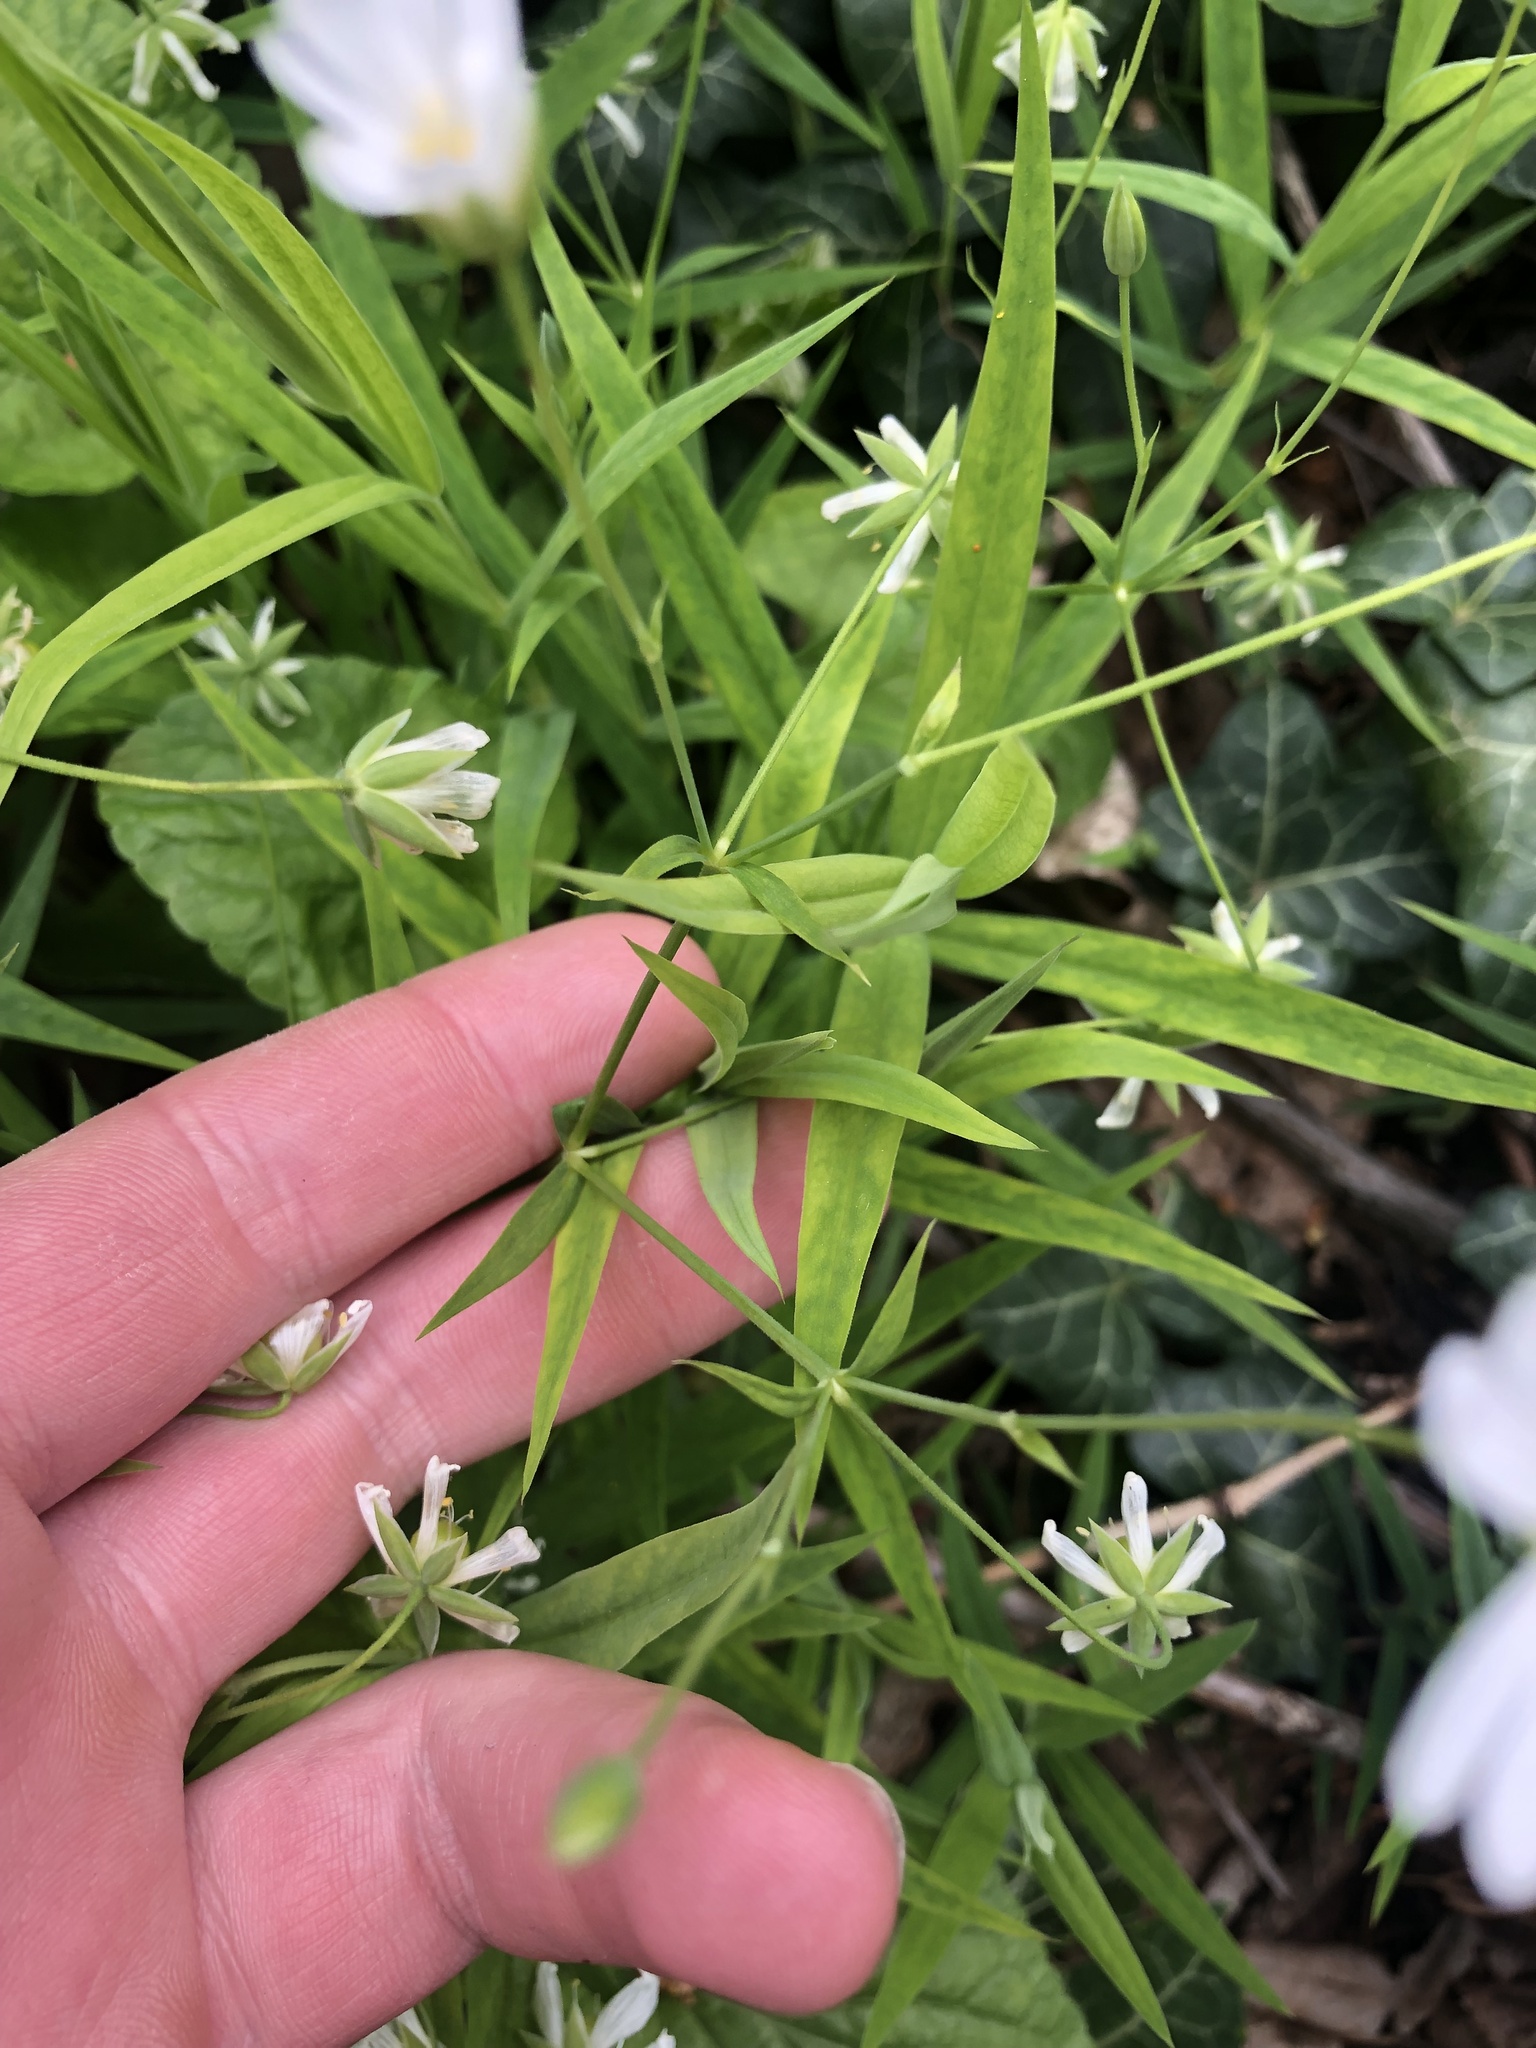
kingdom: Plantae
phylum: Tracheophyta
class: Magnoliopsida
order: Caryophyllales
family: Caryophyllaceae
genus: Rabelera
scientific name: Rabelera holostea
